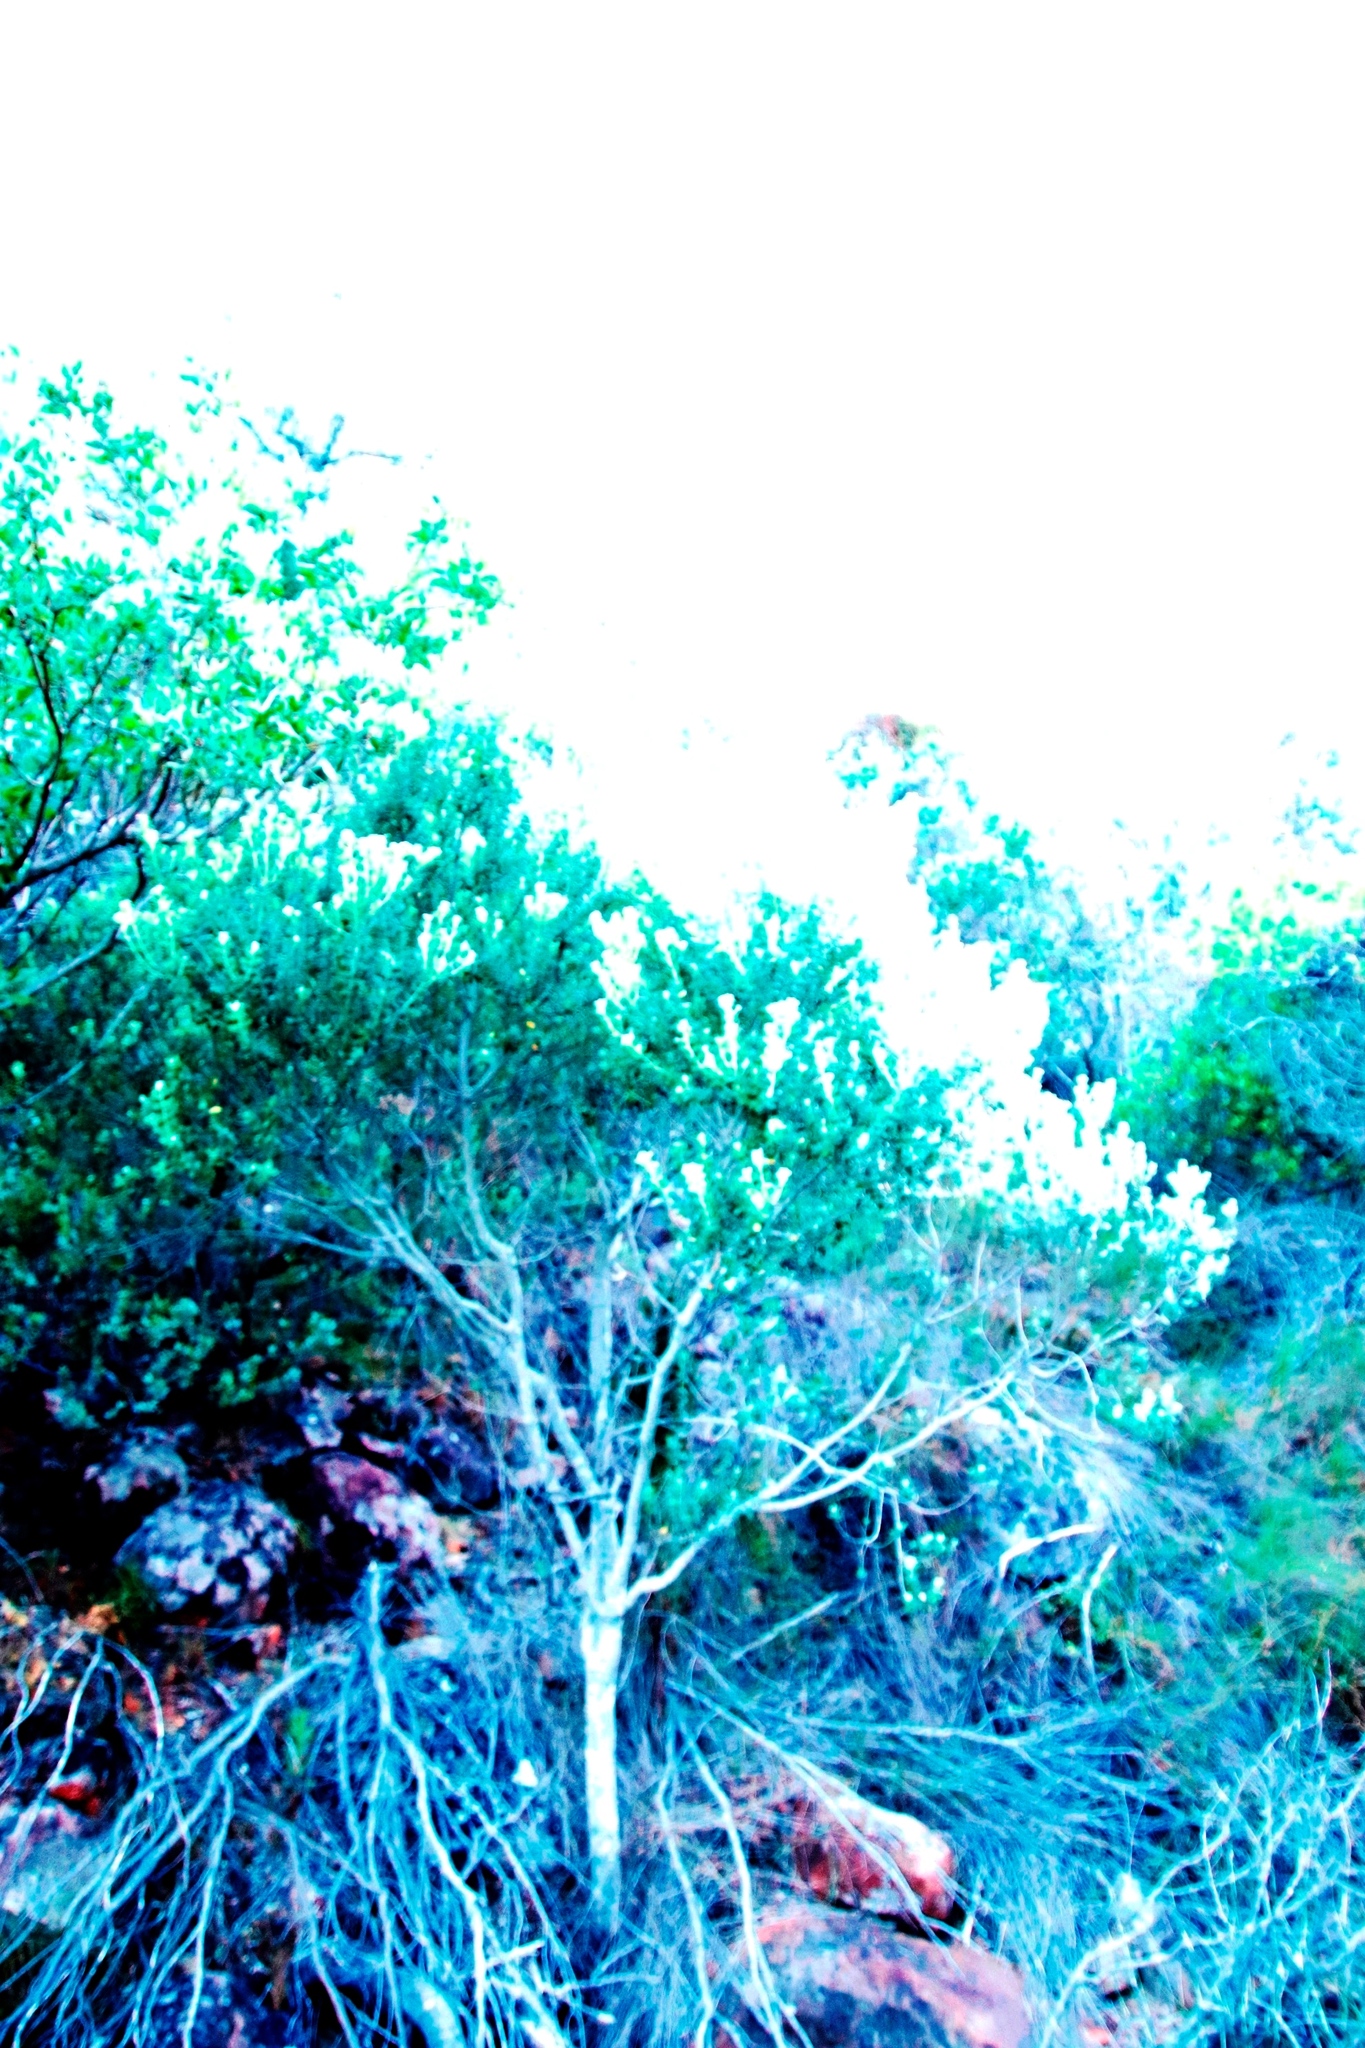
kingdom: Plantae
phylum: Tracheophyta
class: Magnoliopsida
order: Rosales
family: Rhamnaceae
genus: Phylica
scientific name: Phylica buxifolia
